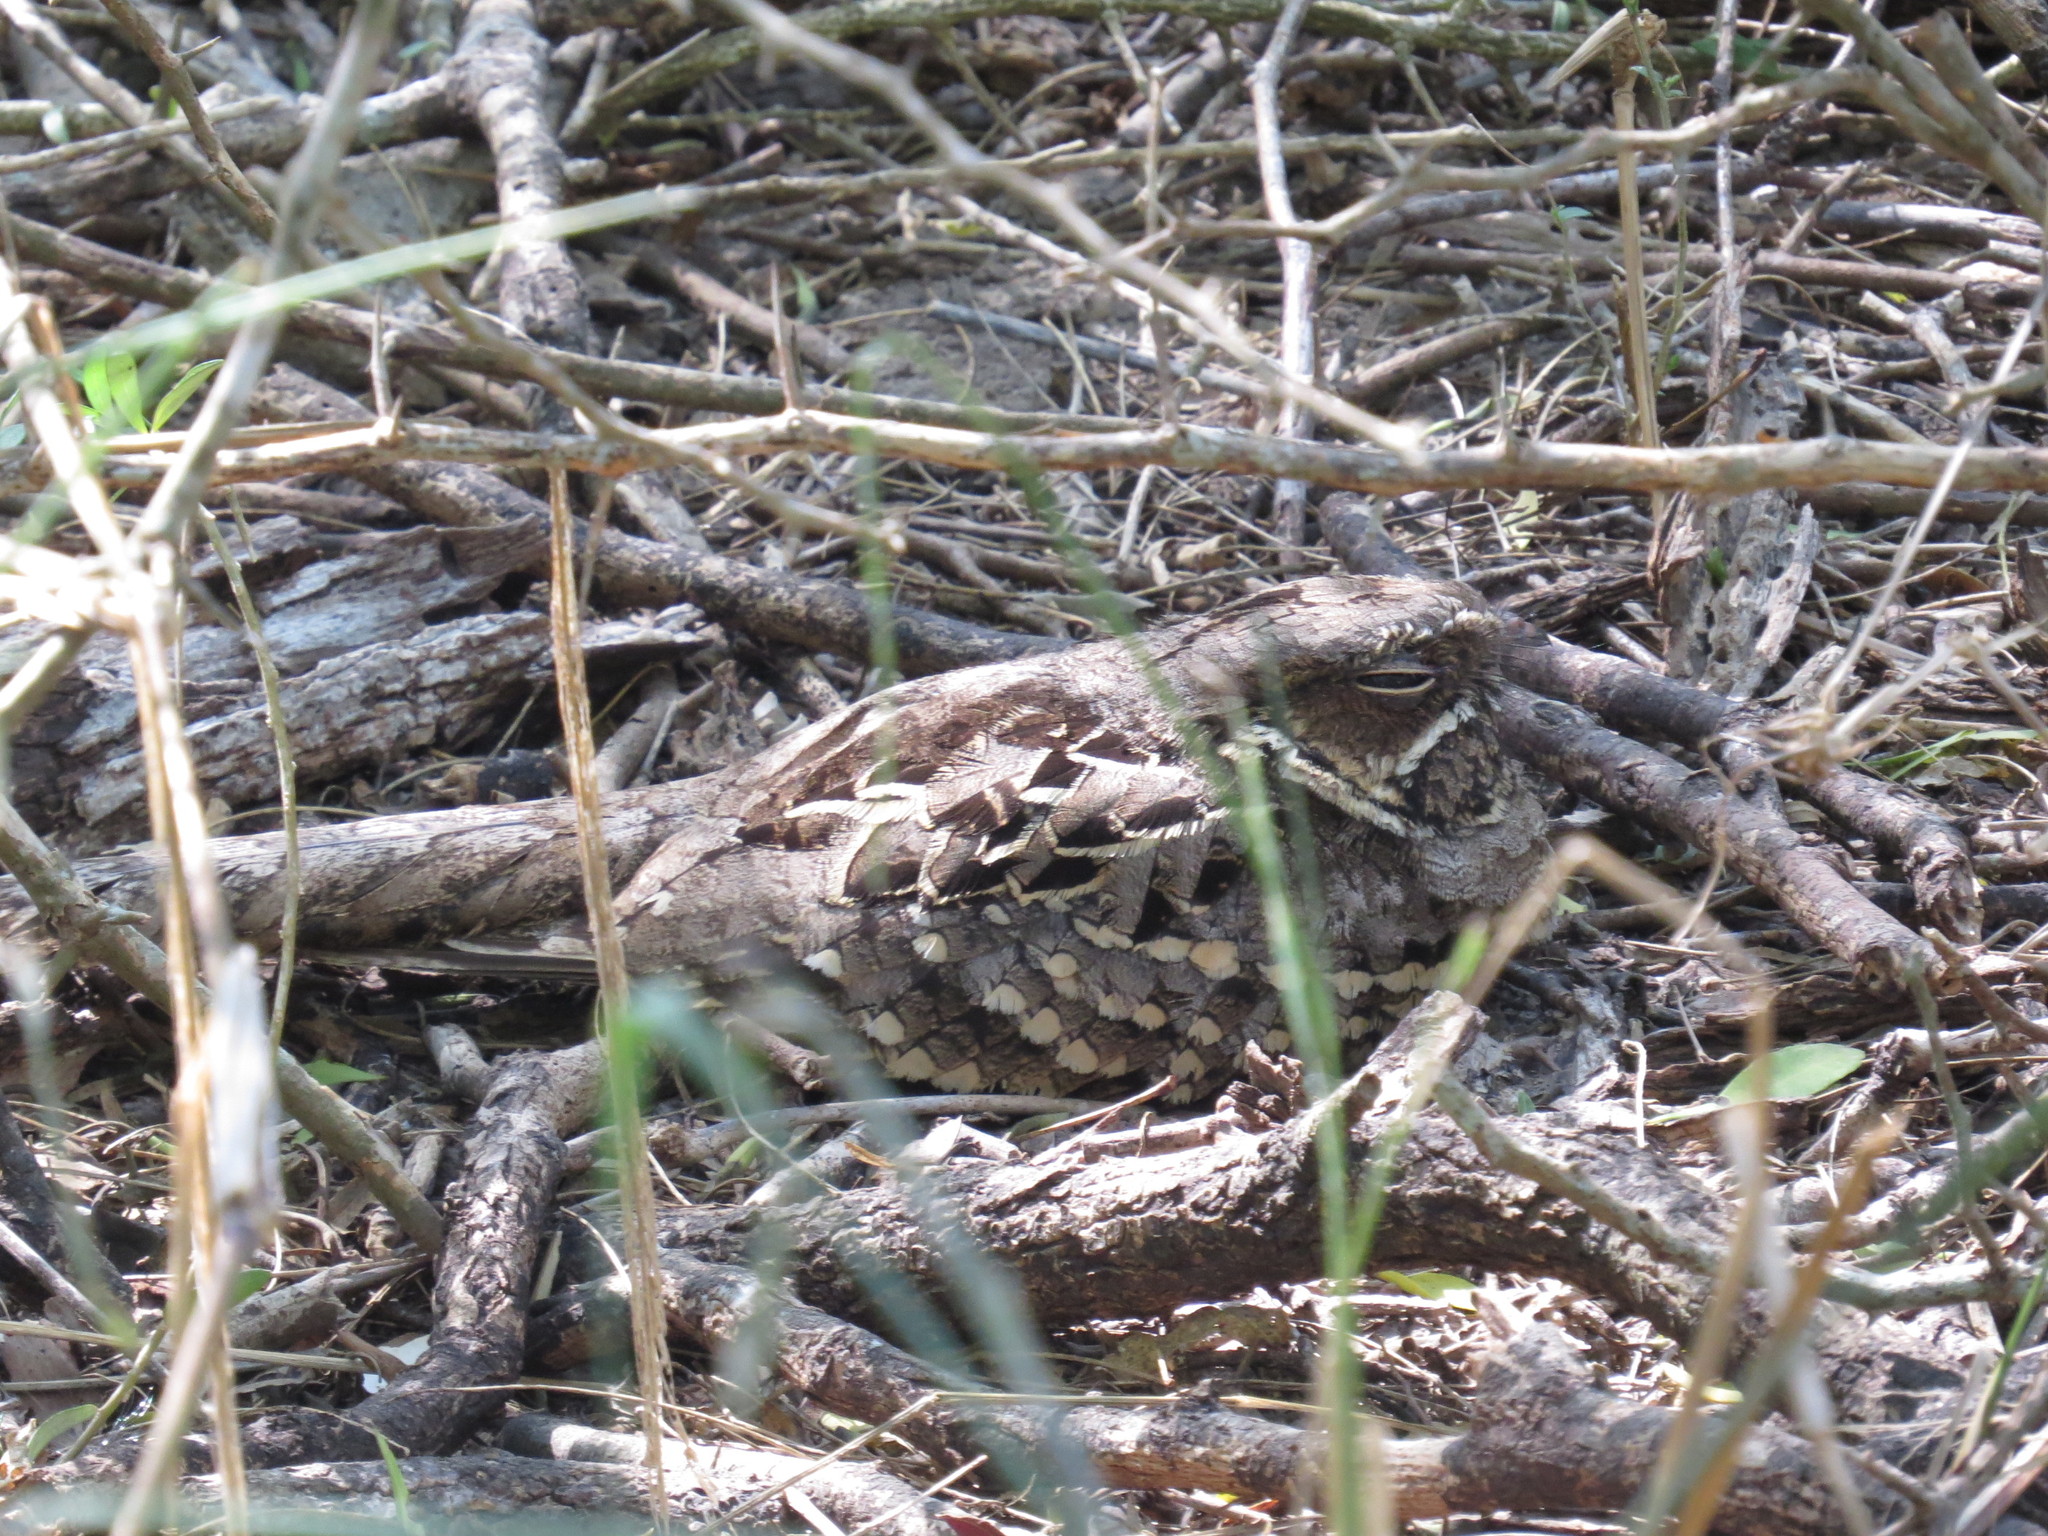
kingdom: Animalia
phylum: Chordata
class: Aves
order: Caprimulgiformes
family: Caprimulgidae
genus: Nyctidromus
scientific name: Nyctidromus albicollis
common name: Pauraque
